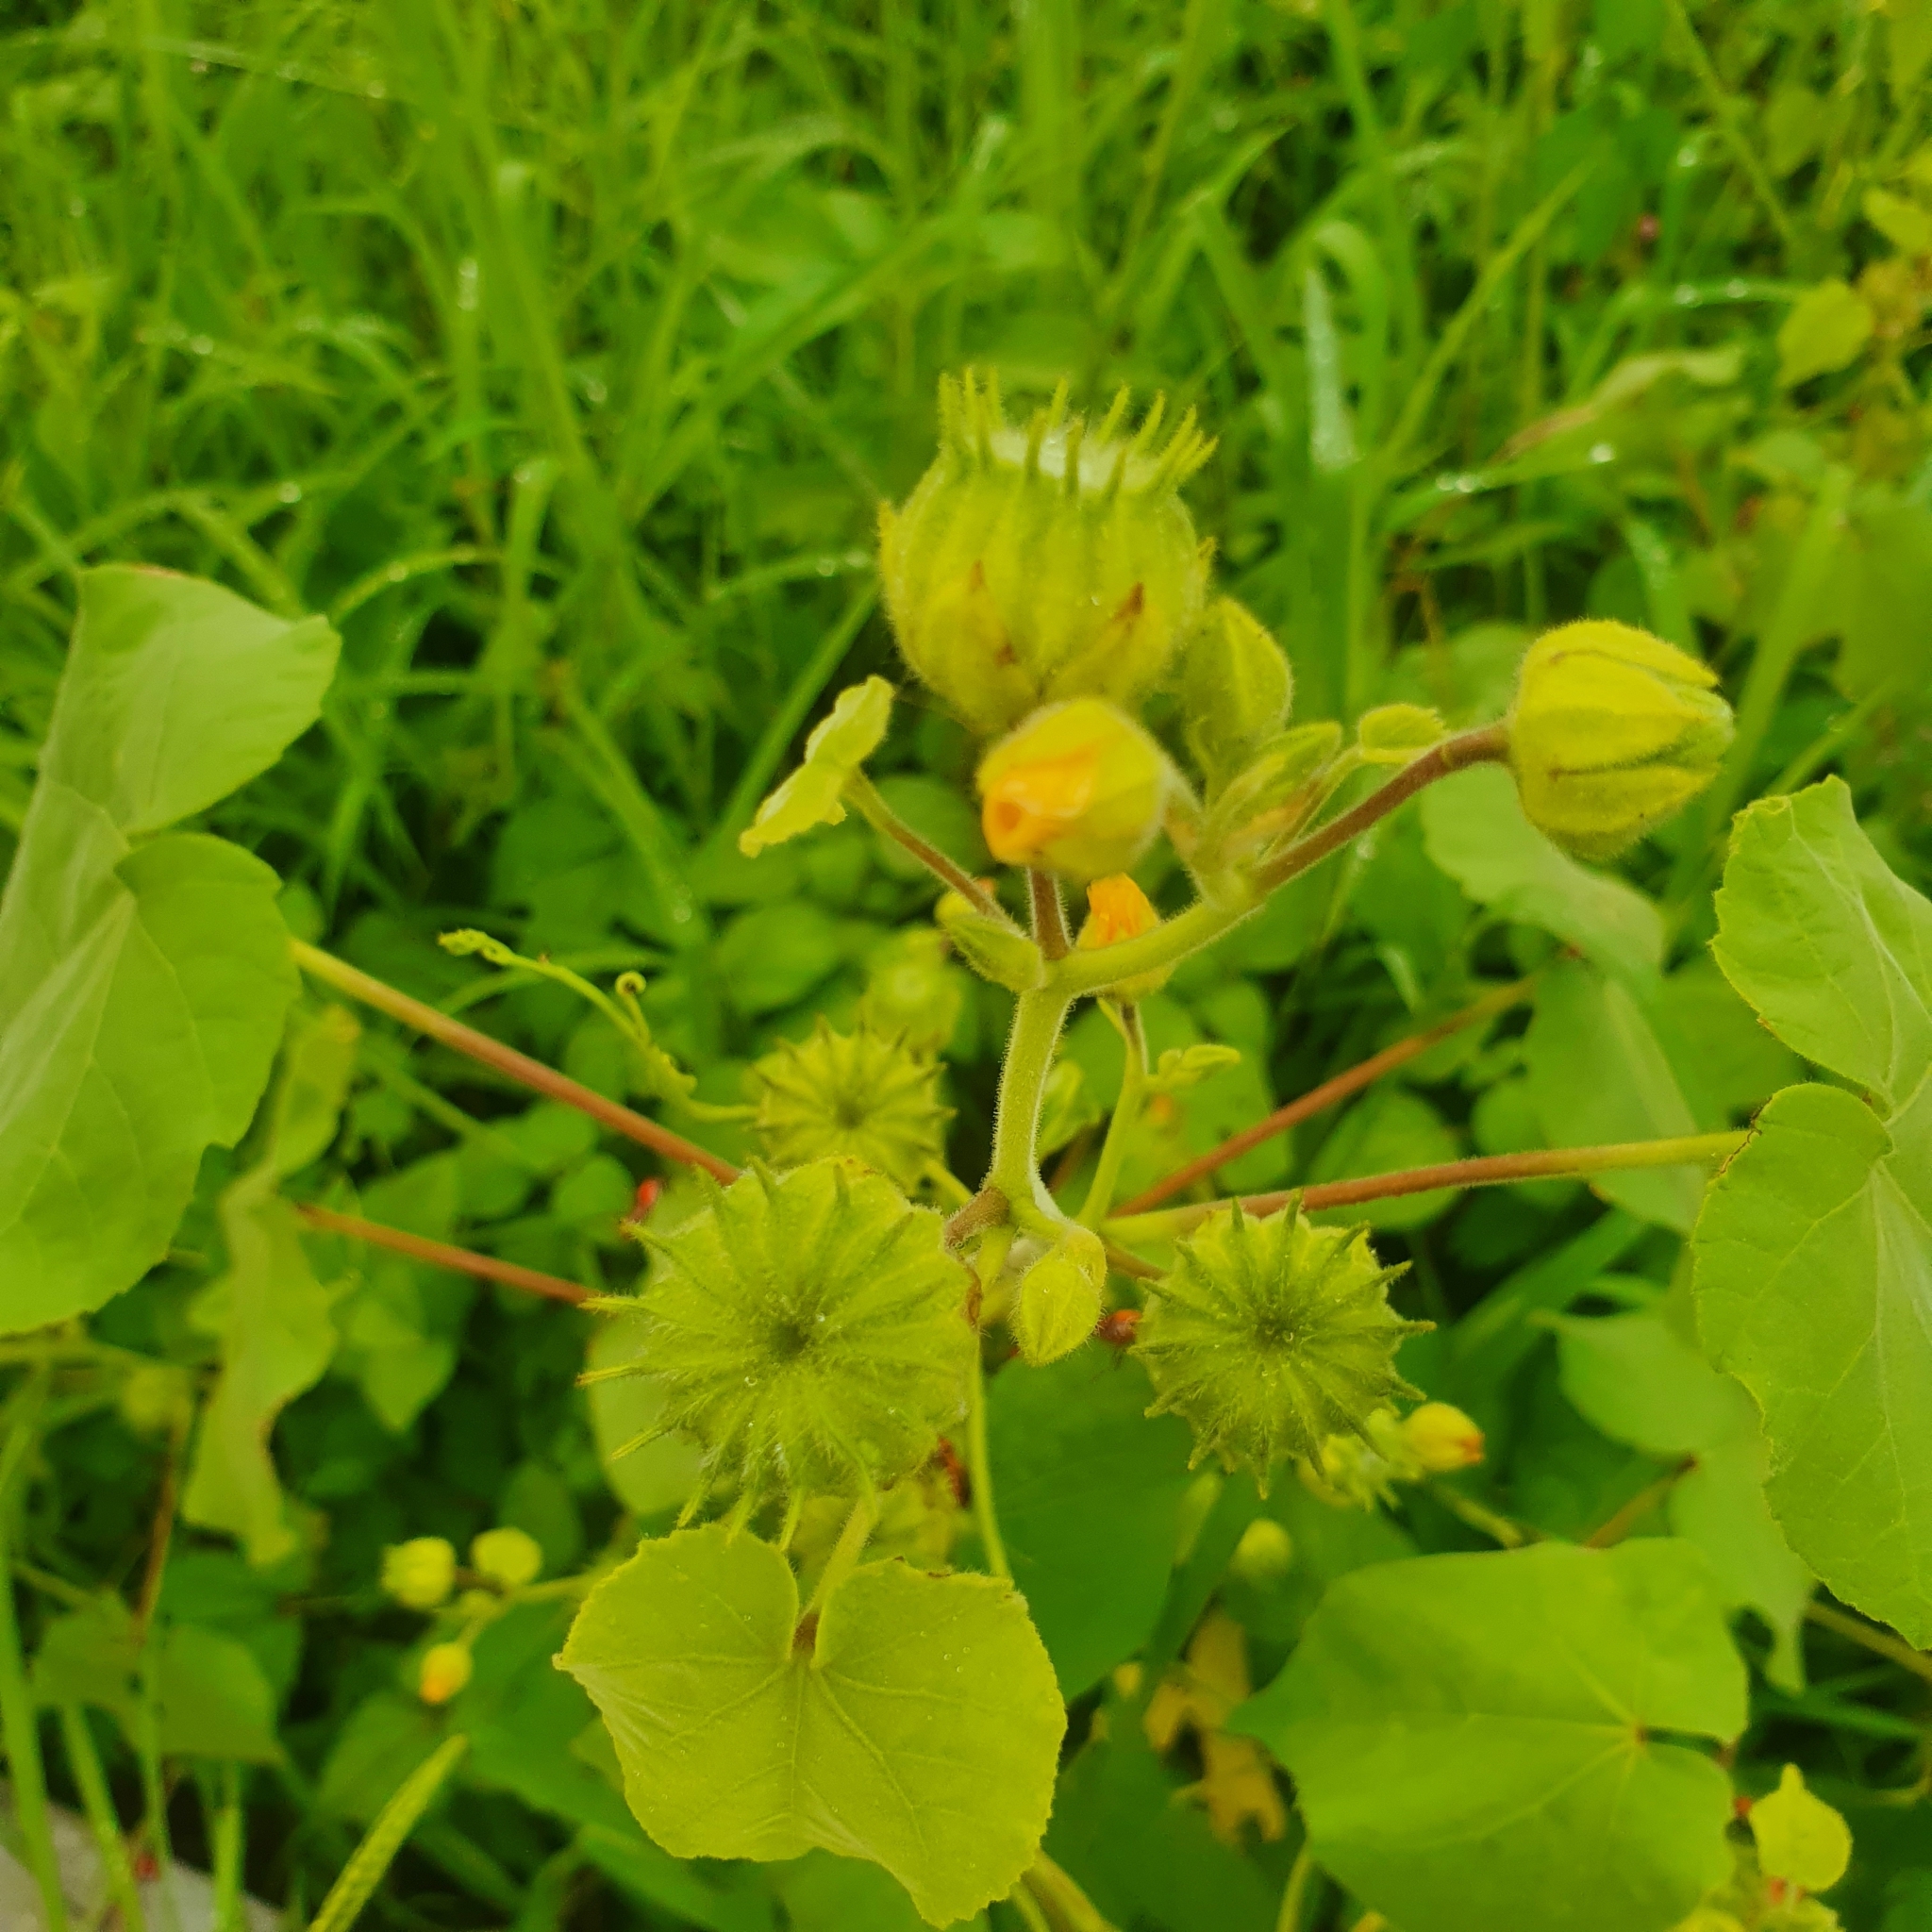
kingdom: Plantae
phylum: Tracheophyta
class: Magnoliopsida
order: Malvales
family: Malvaceae
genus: Abutilon
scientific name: Abutilon theophrasti
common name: Velvetleaf
